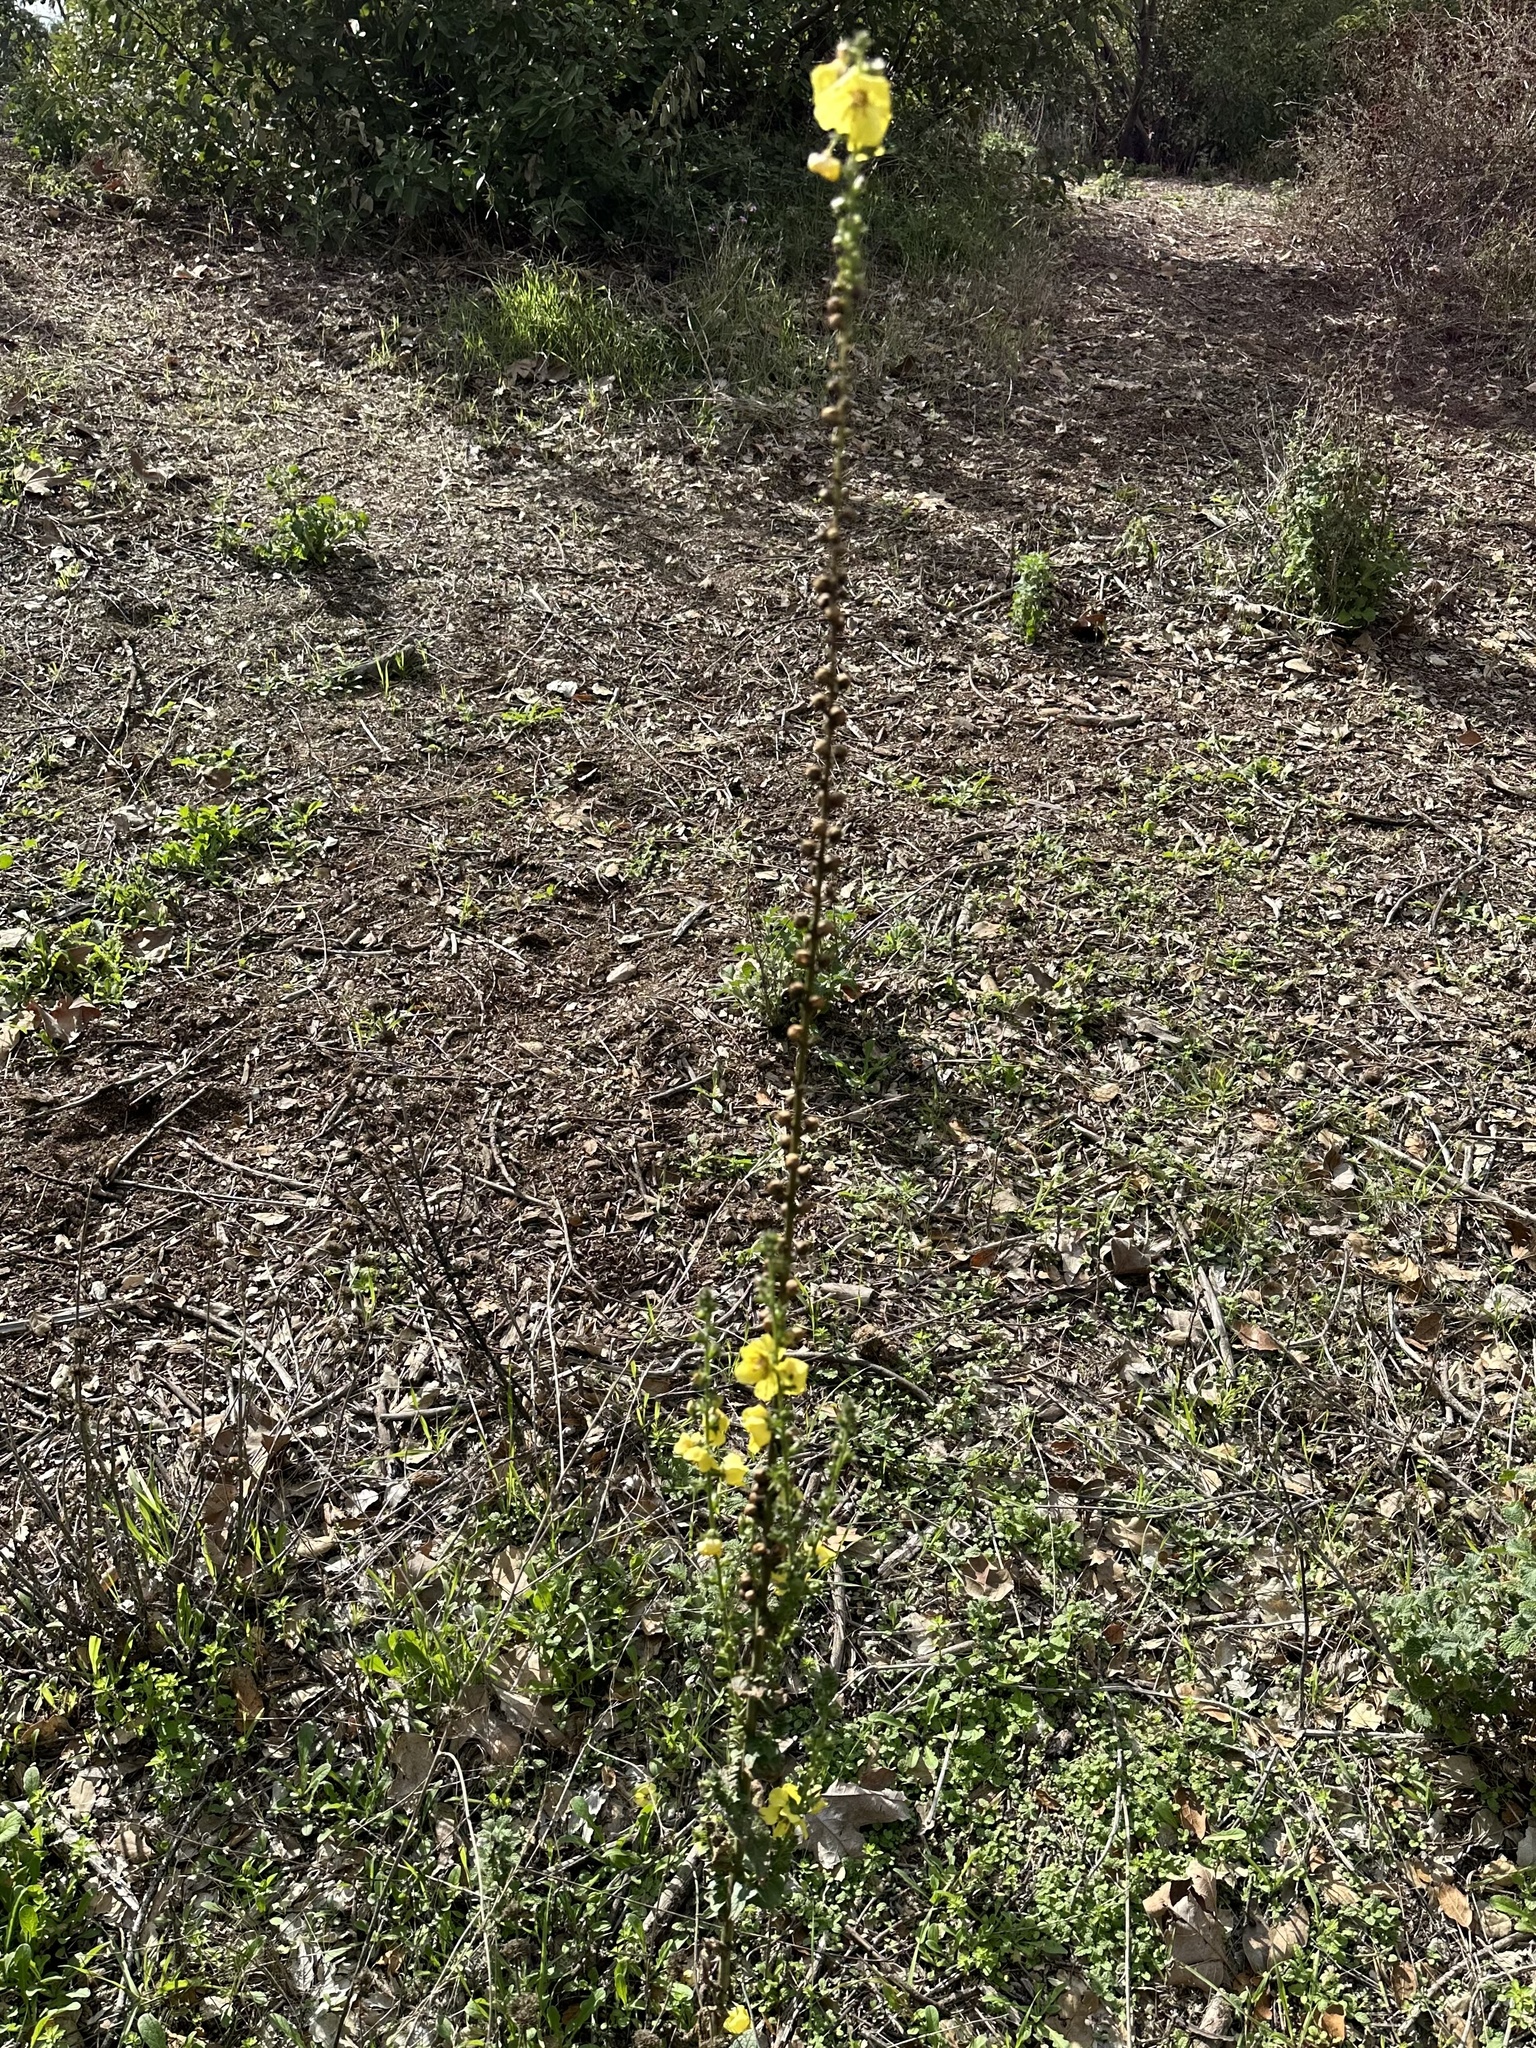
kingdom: Plantae
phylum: Tracheophyta
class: Magnoliopsida
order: Lamiales
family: Scrophulariaceae
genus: Verbascum
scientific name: Verbascum virgatum
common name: Twiggy mullein
